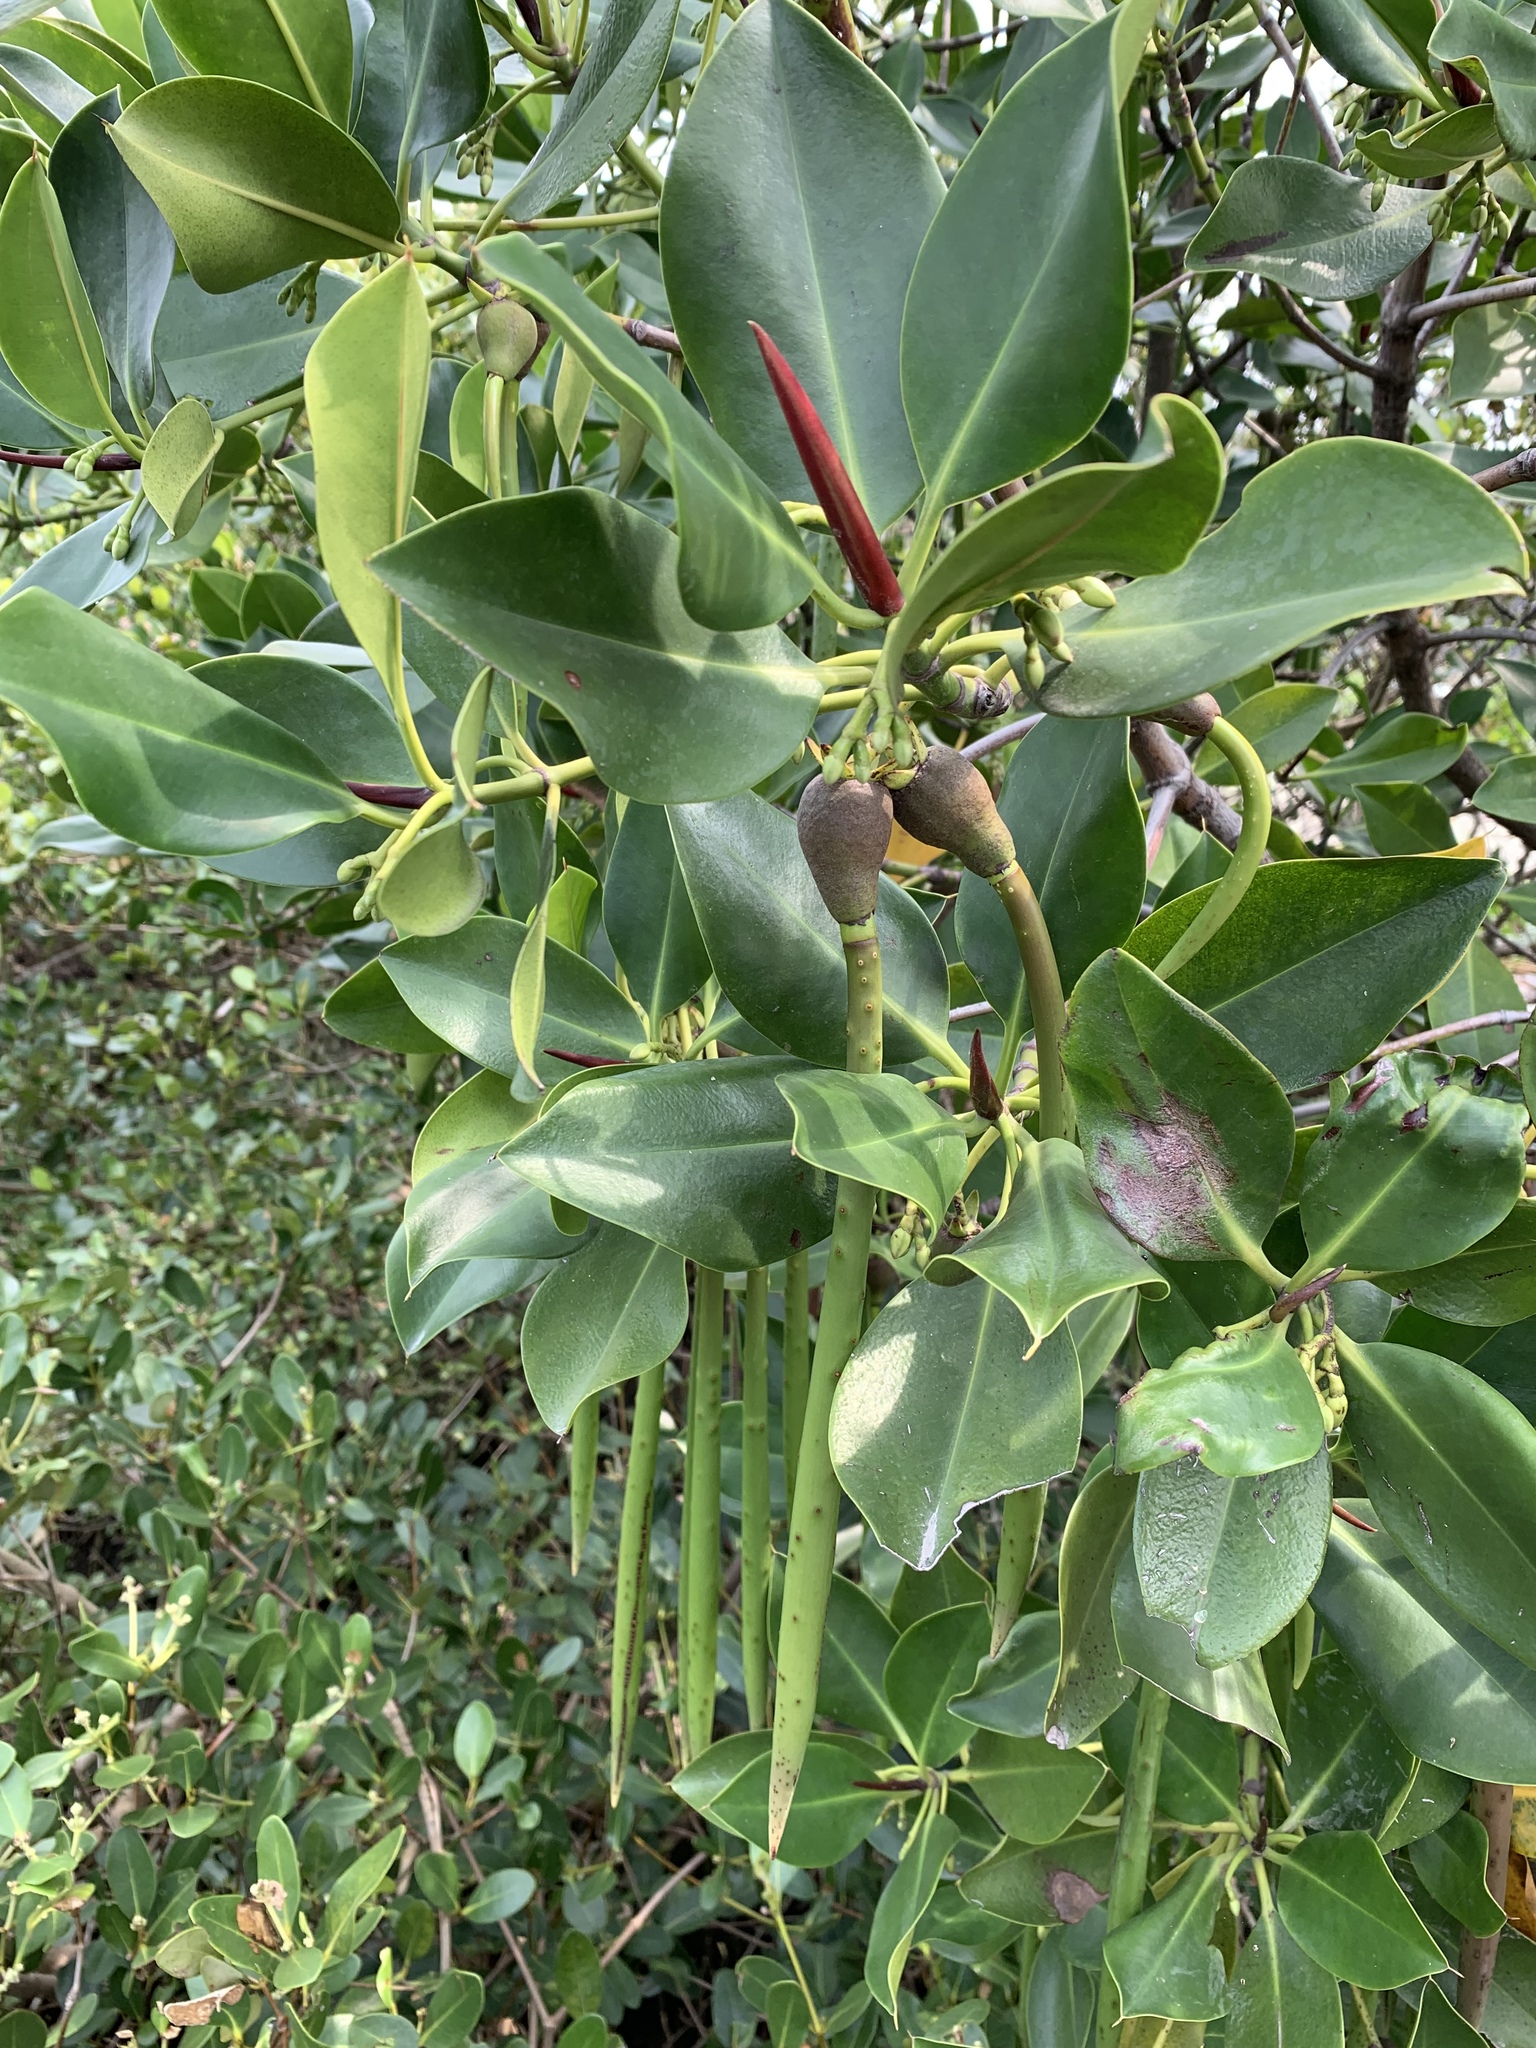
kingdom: Plantae
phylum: Tracheophyta
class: Magnoliopsida
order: Malpighiales
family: Rhizophoraceae
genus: Rhizophora
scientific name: Rhizophora stylosa
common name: Red mangrove
